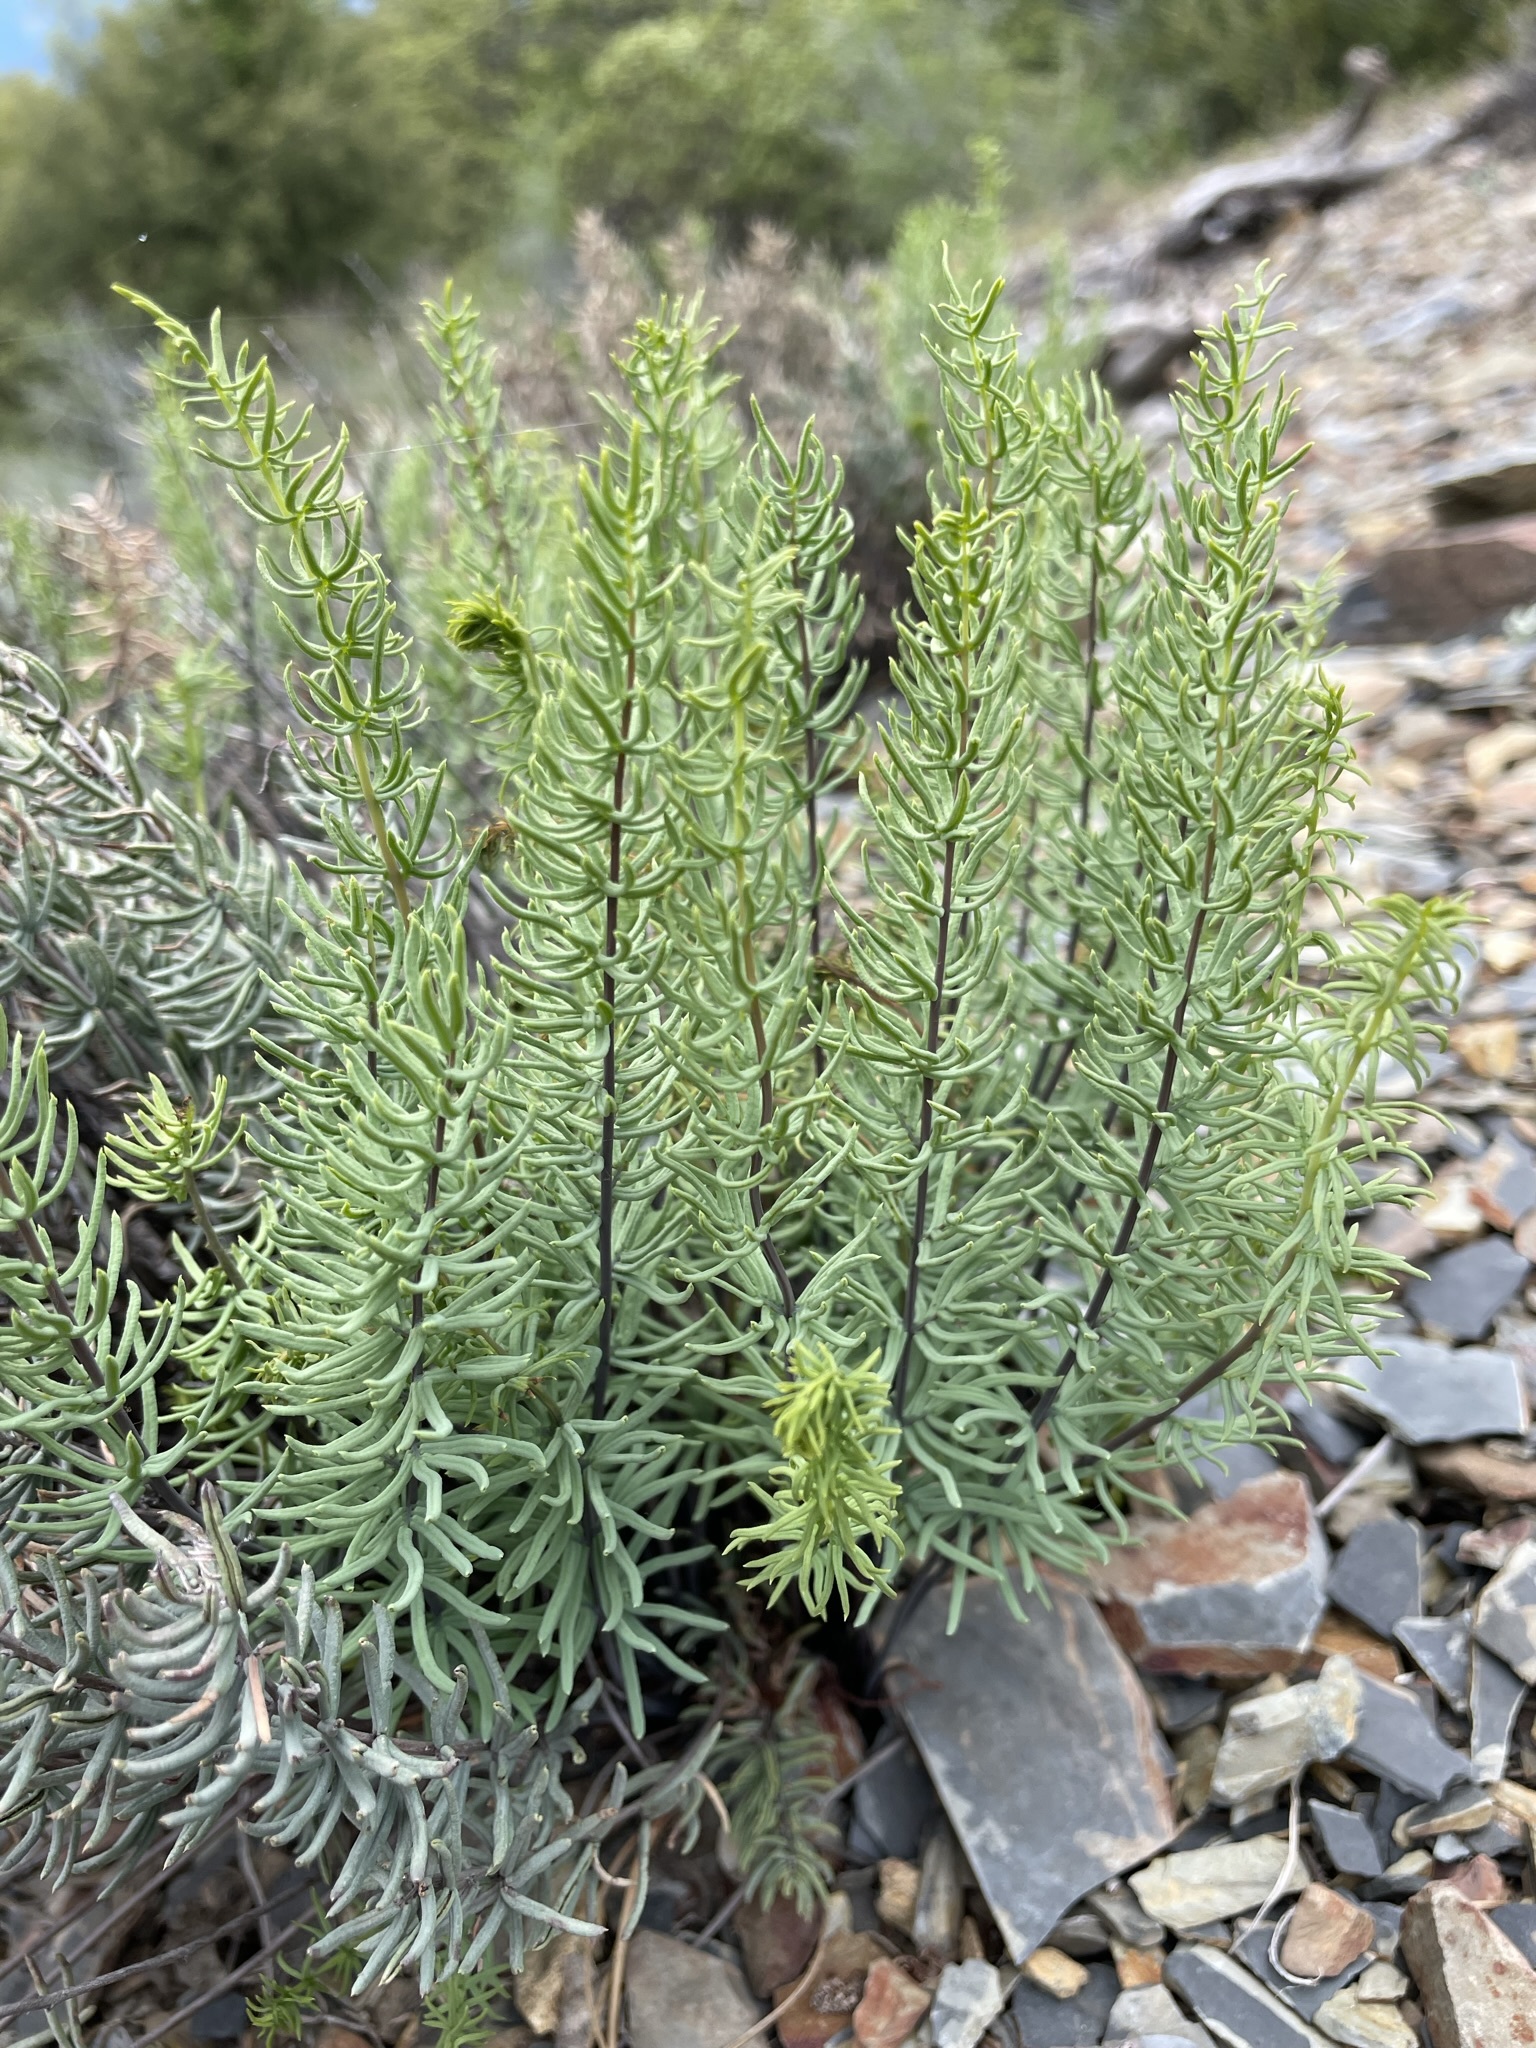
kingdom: Plantae
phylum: Tracheophyta
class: Polypodiopsida
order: Polypodiales
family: Pteridaceae
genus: Pellaea
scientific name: Pellaea brachyptera
